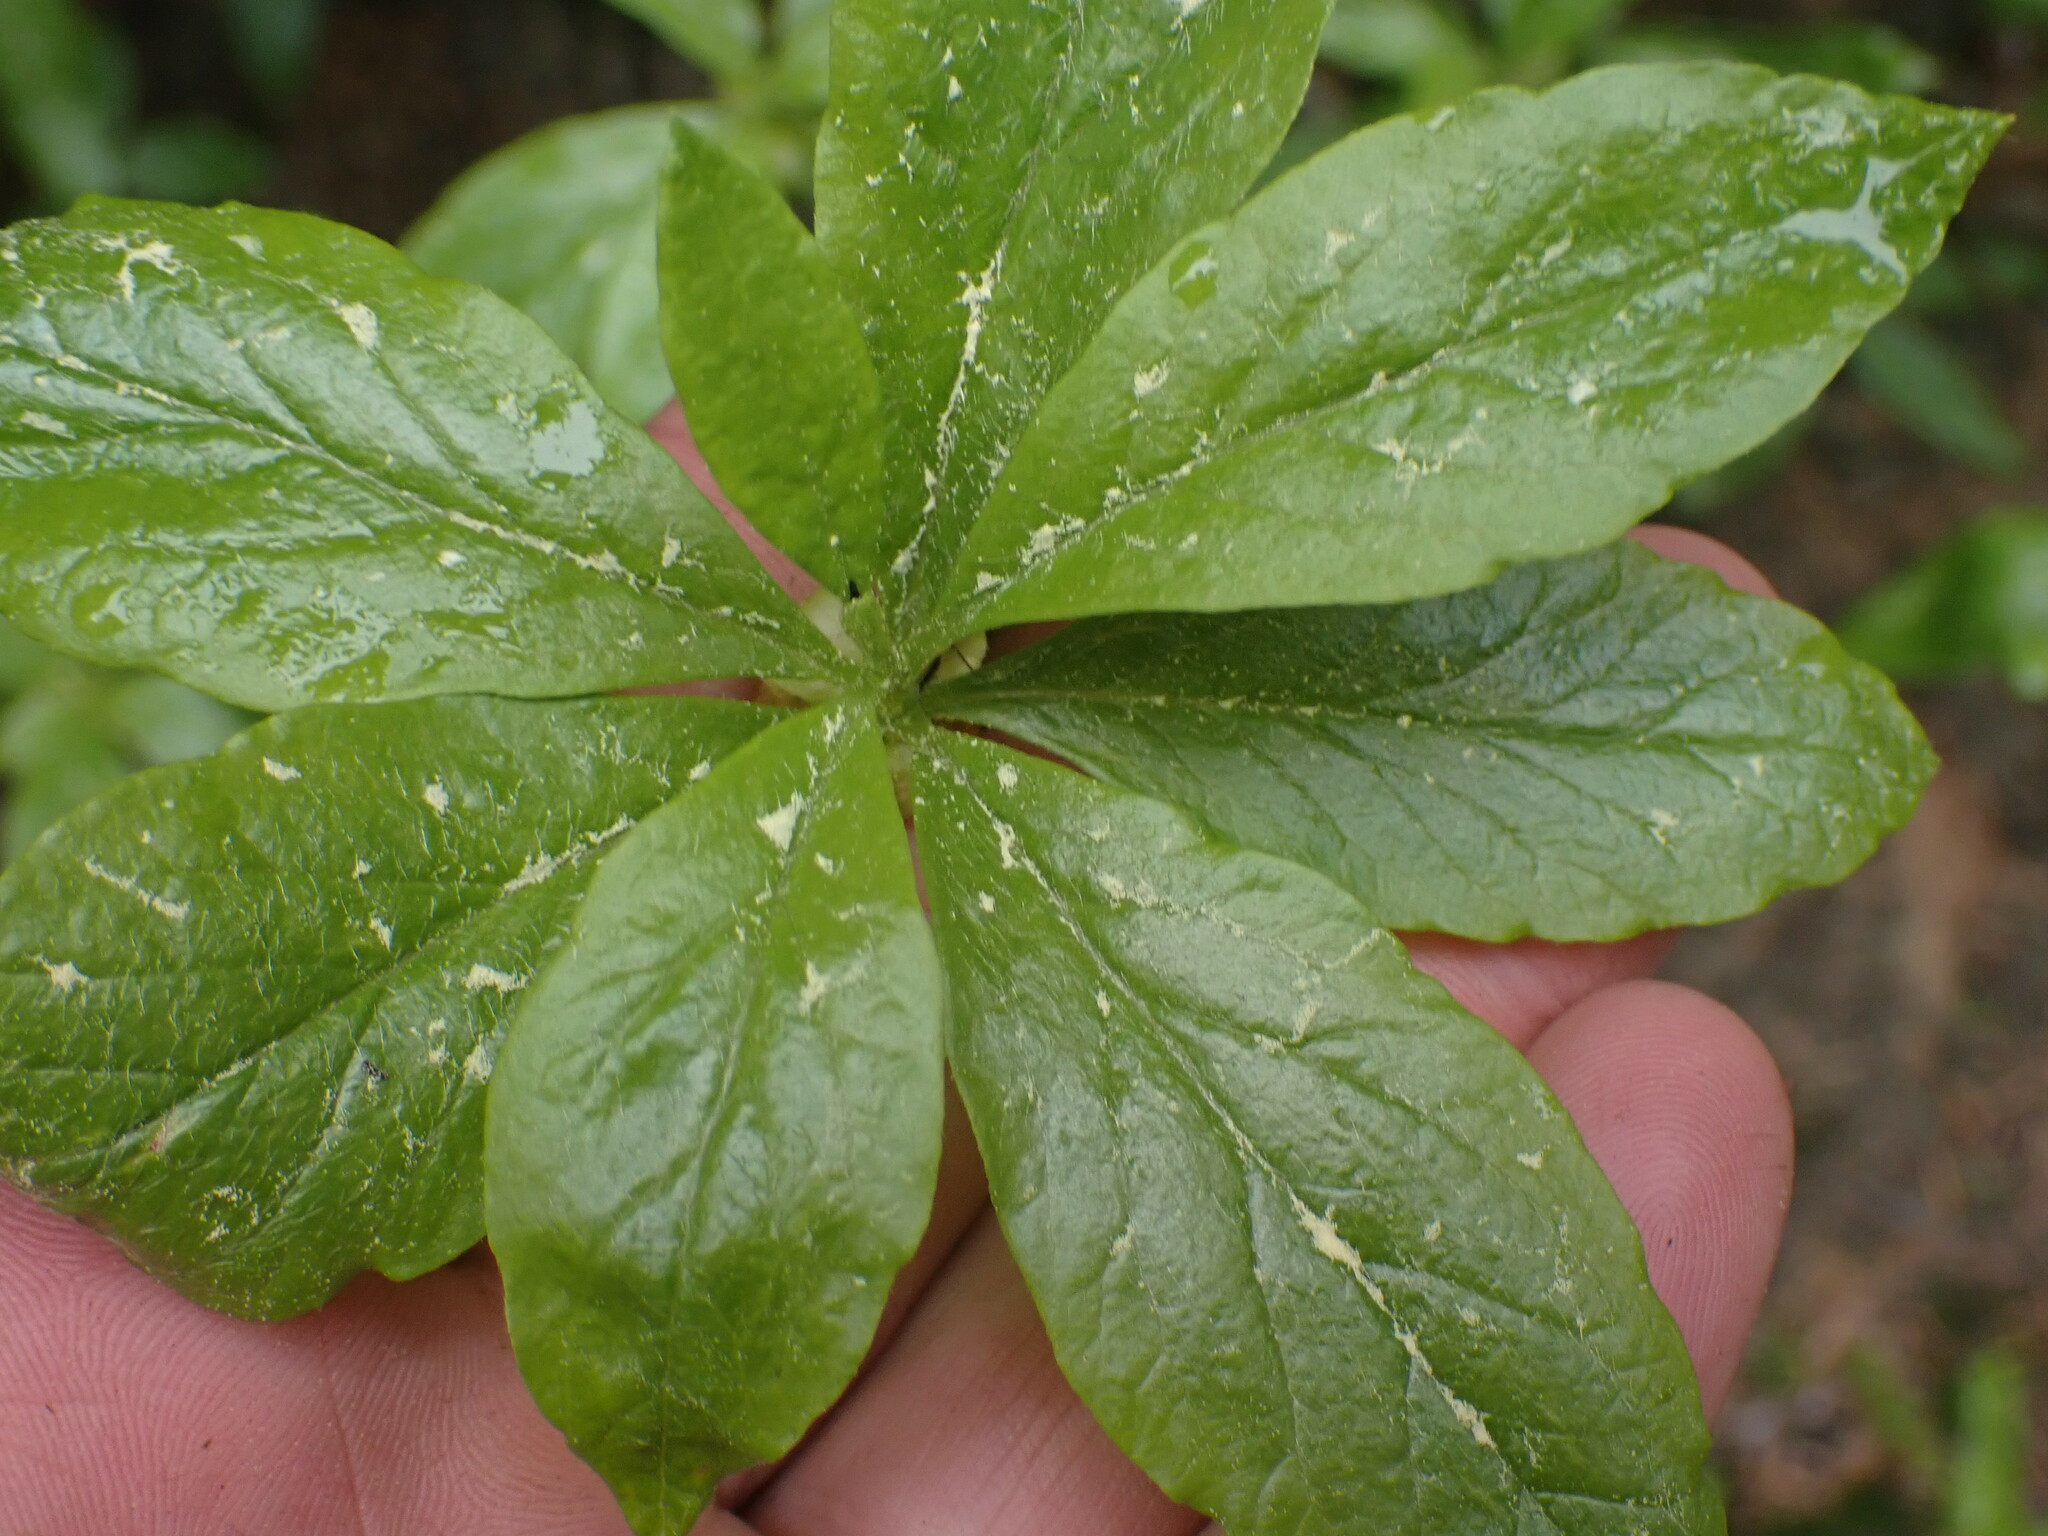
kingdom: Plantae
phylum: Tracheophyta
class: Magnoliopsida
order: Ericales
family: Ericaceae
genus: Rhododendron
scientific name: Rhododendron albiflorum
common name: White rhododendron
